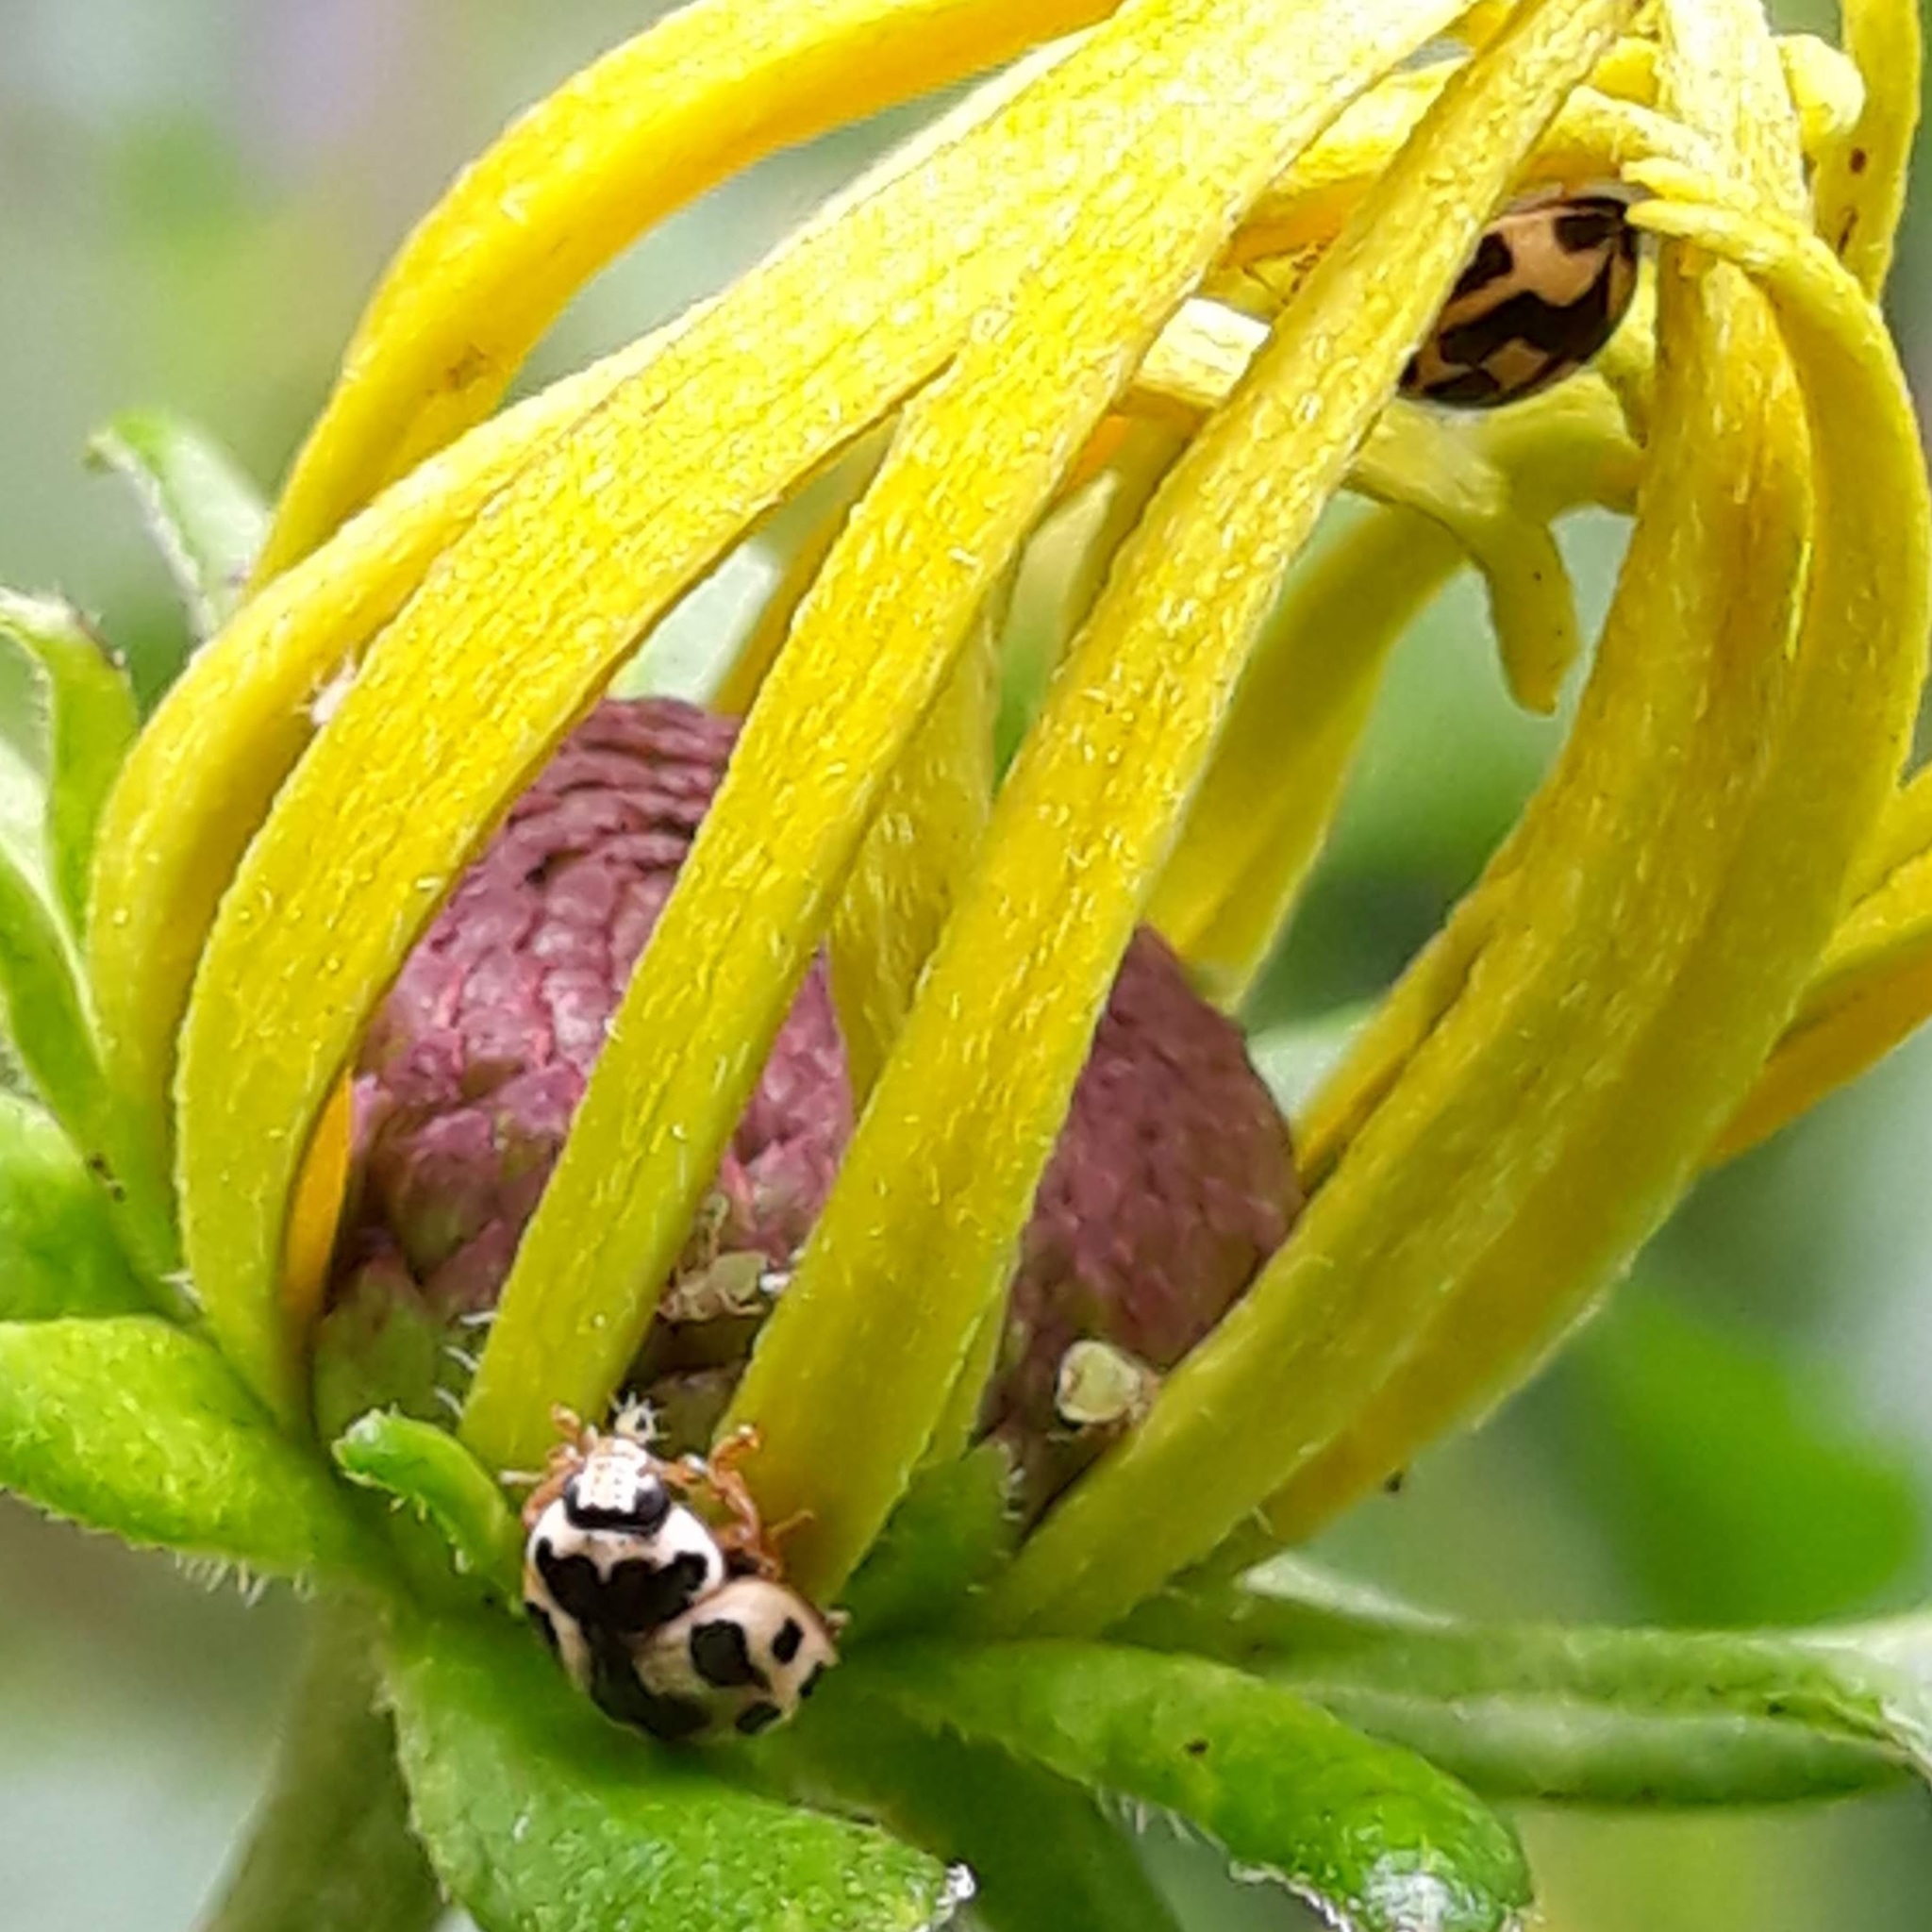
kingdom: Animalia
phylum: Arthropoda
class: Insecta
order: Coleoptera
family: Coccinellidae
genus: Propylaea
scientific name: Propylaea quatuordecimpunctata
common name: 14-spotted ladybird beetle
